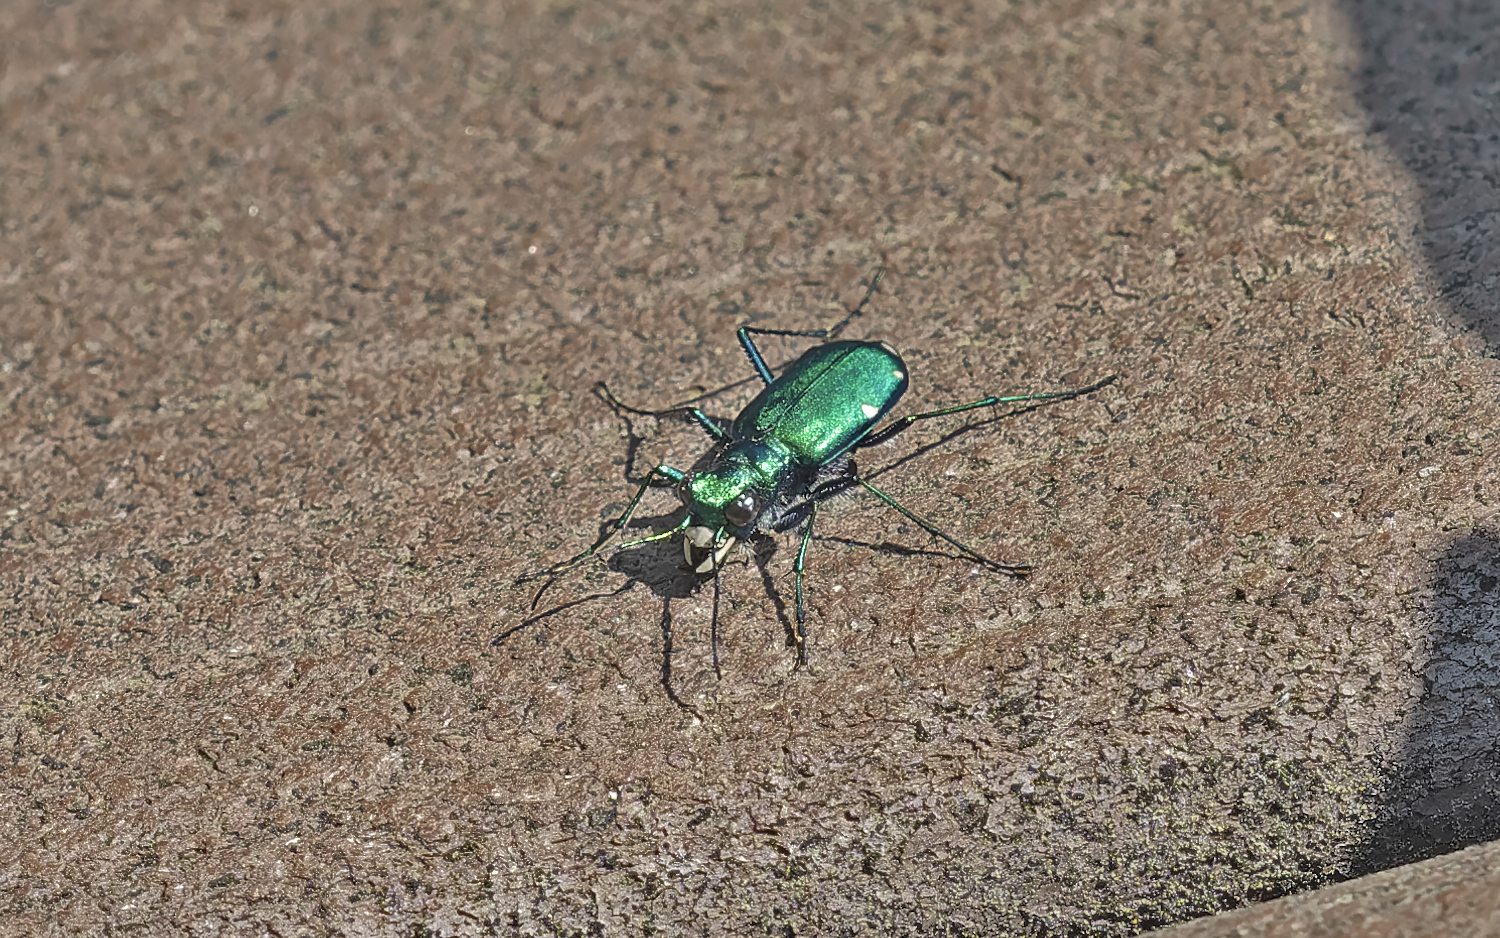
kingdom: Animalia
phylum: Arthropoda
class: Insecta
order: Coleoptera
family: Carabidae
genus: Cicindela
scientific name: Cicindela sexguttata
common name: Six-spotted tiger beetle
